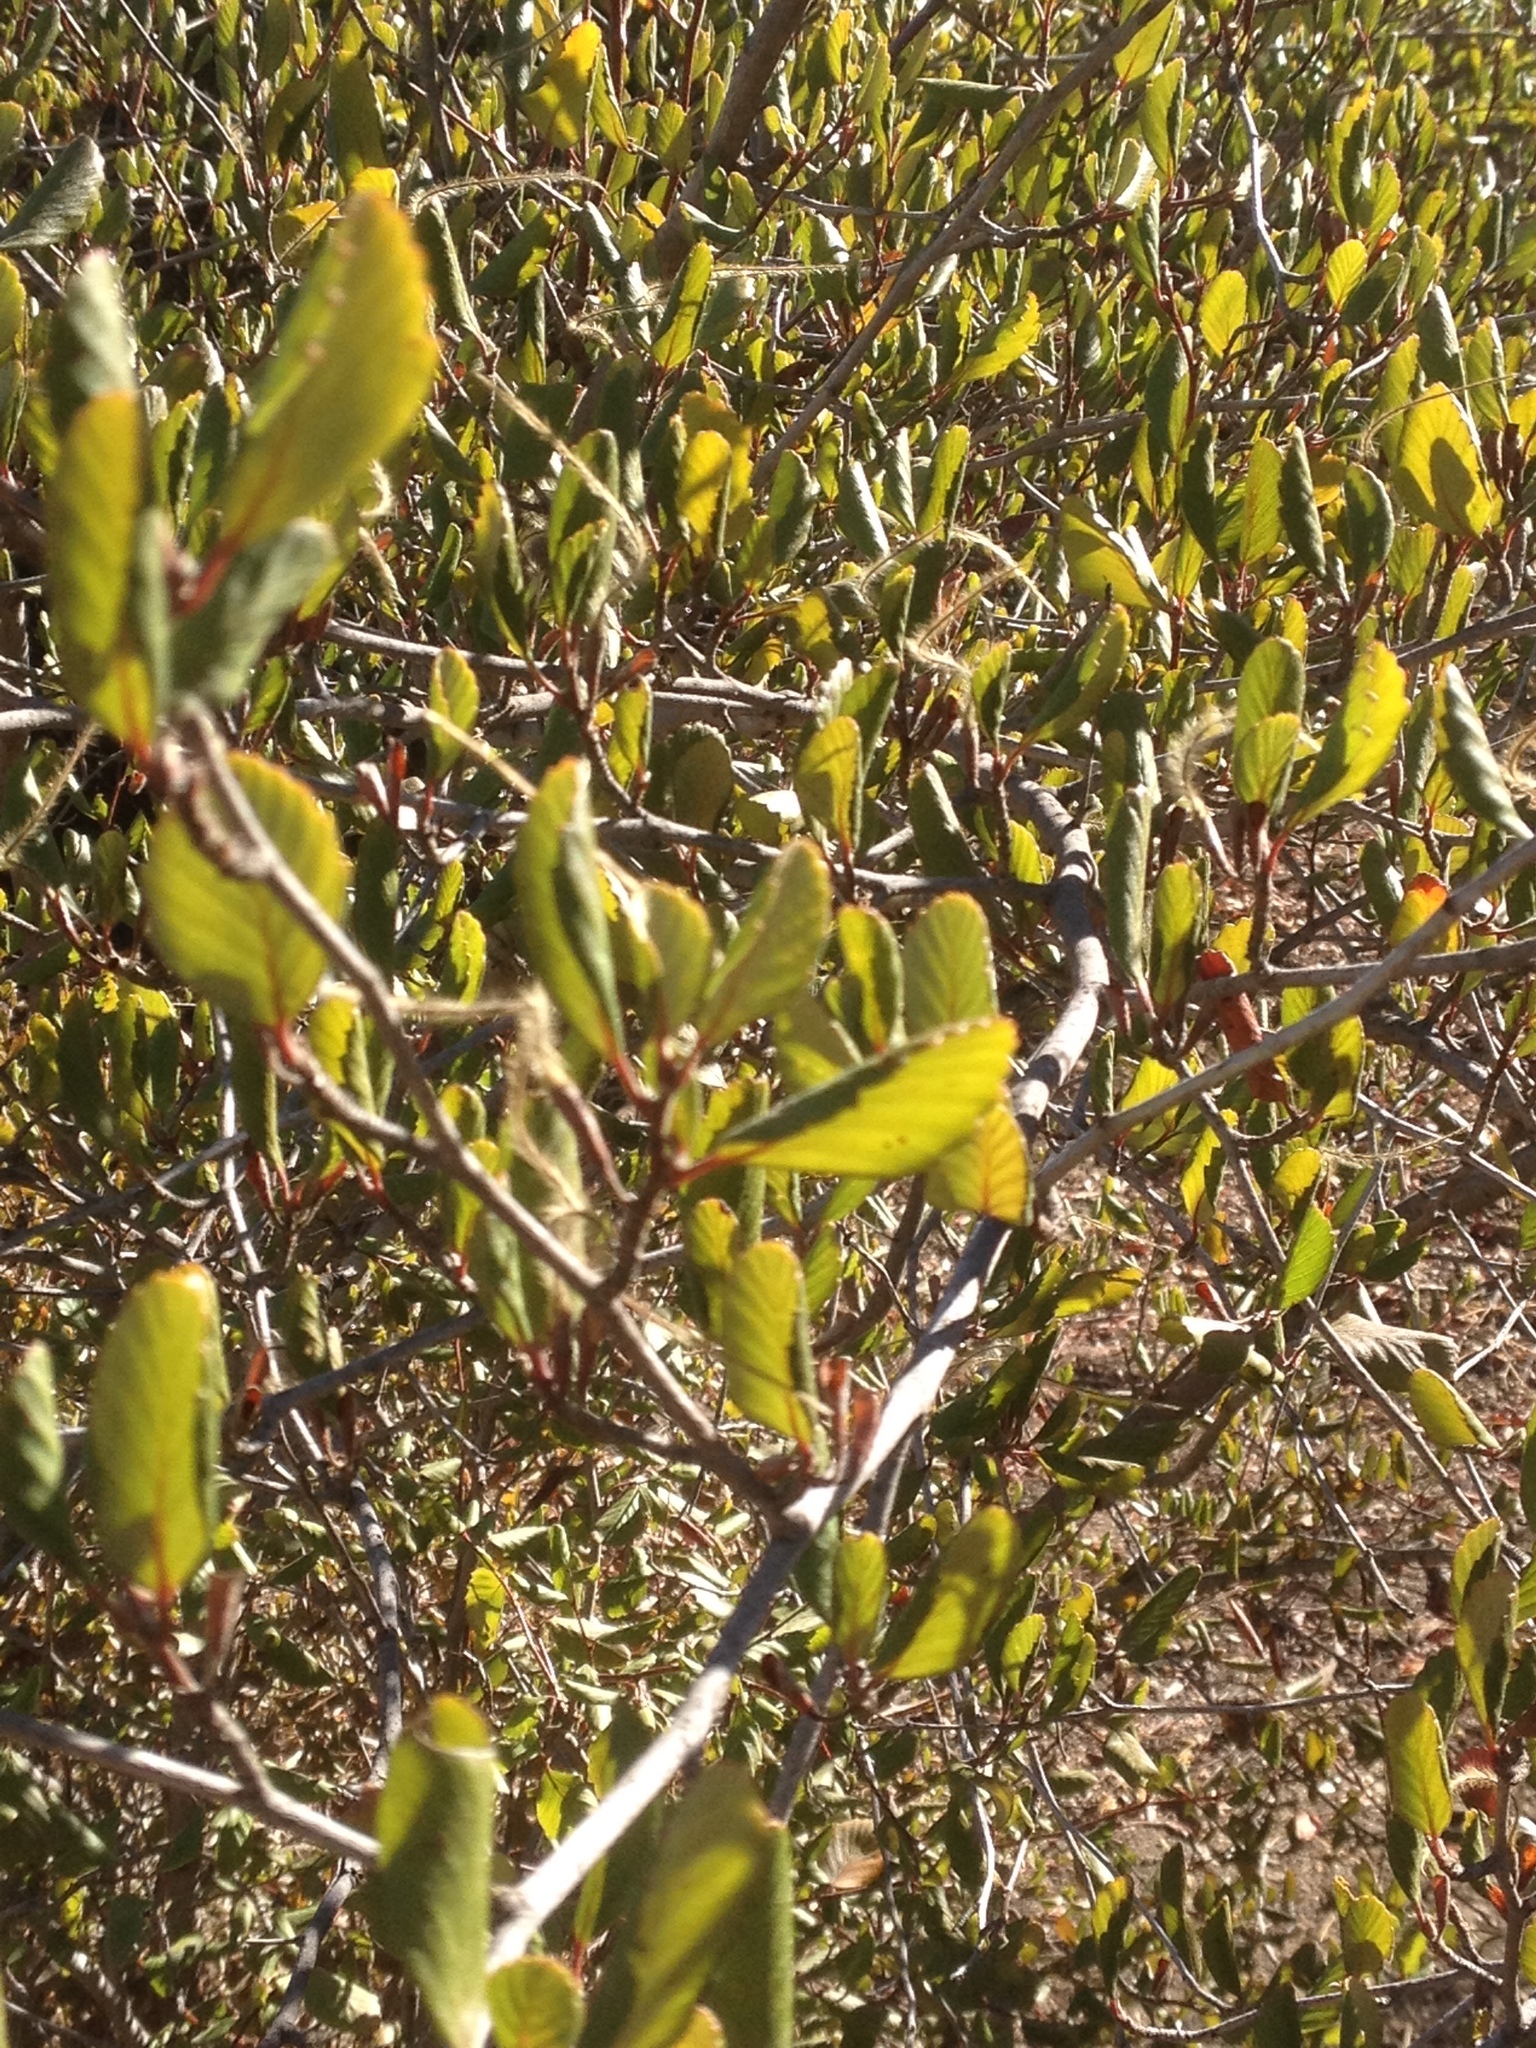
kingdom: Plantae
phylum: Tracheophyta
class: Magnoliopsida
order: Rosales
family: Rosaceae
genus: Cercocarpus
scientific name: Cercocarpus betuloides
